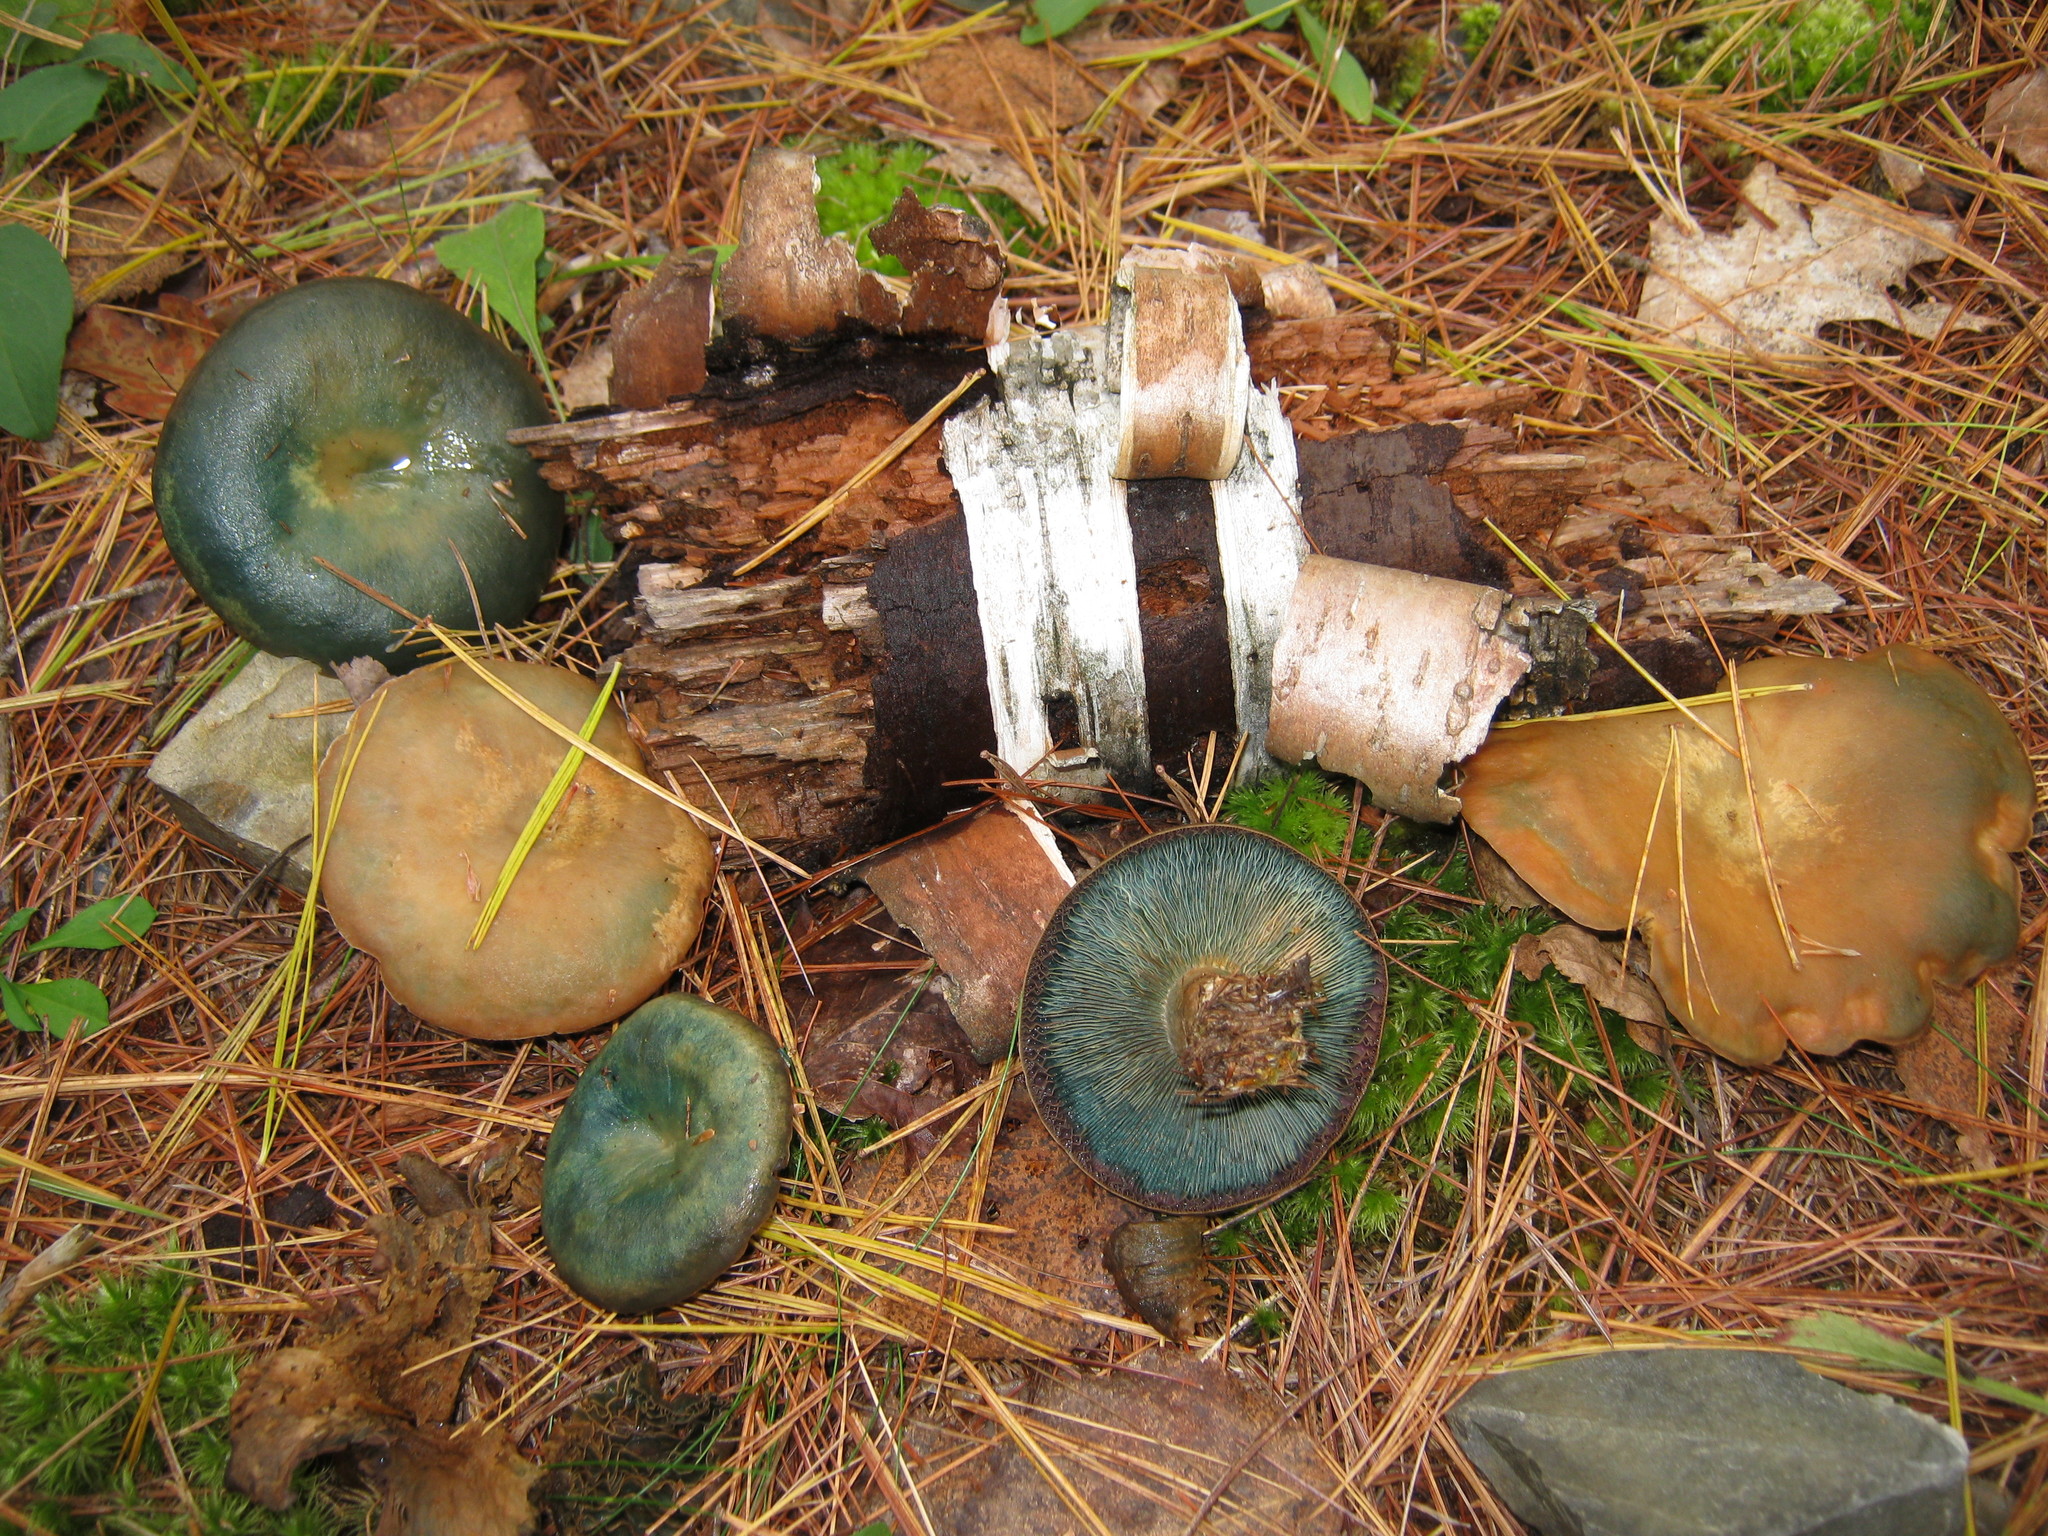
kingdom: Fungi
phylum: Basidiomycota
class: Agaricomycetes
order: Russulales
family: Russulaceae
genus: Lactarius
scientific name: Lactarius chelidonium
